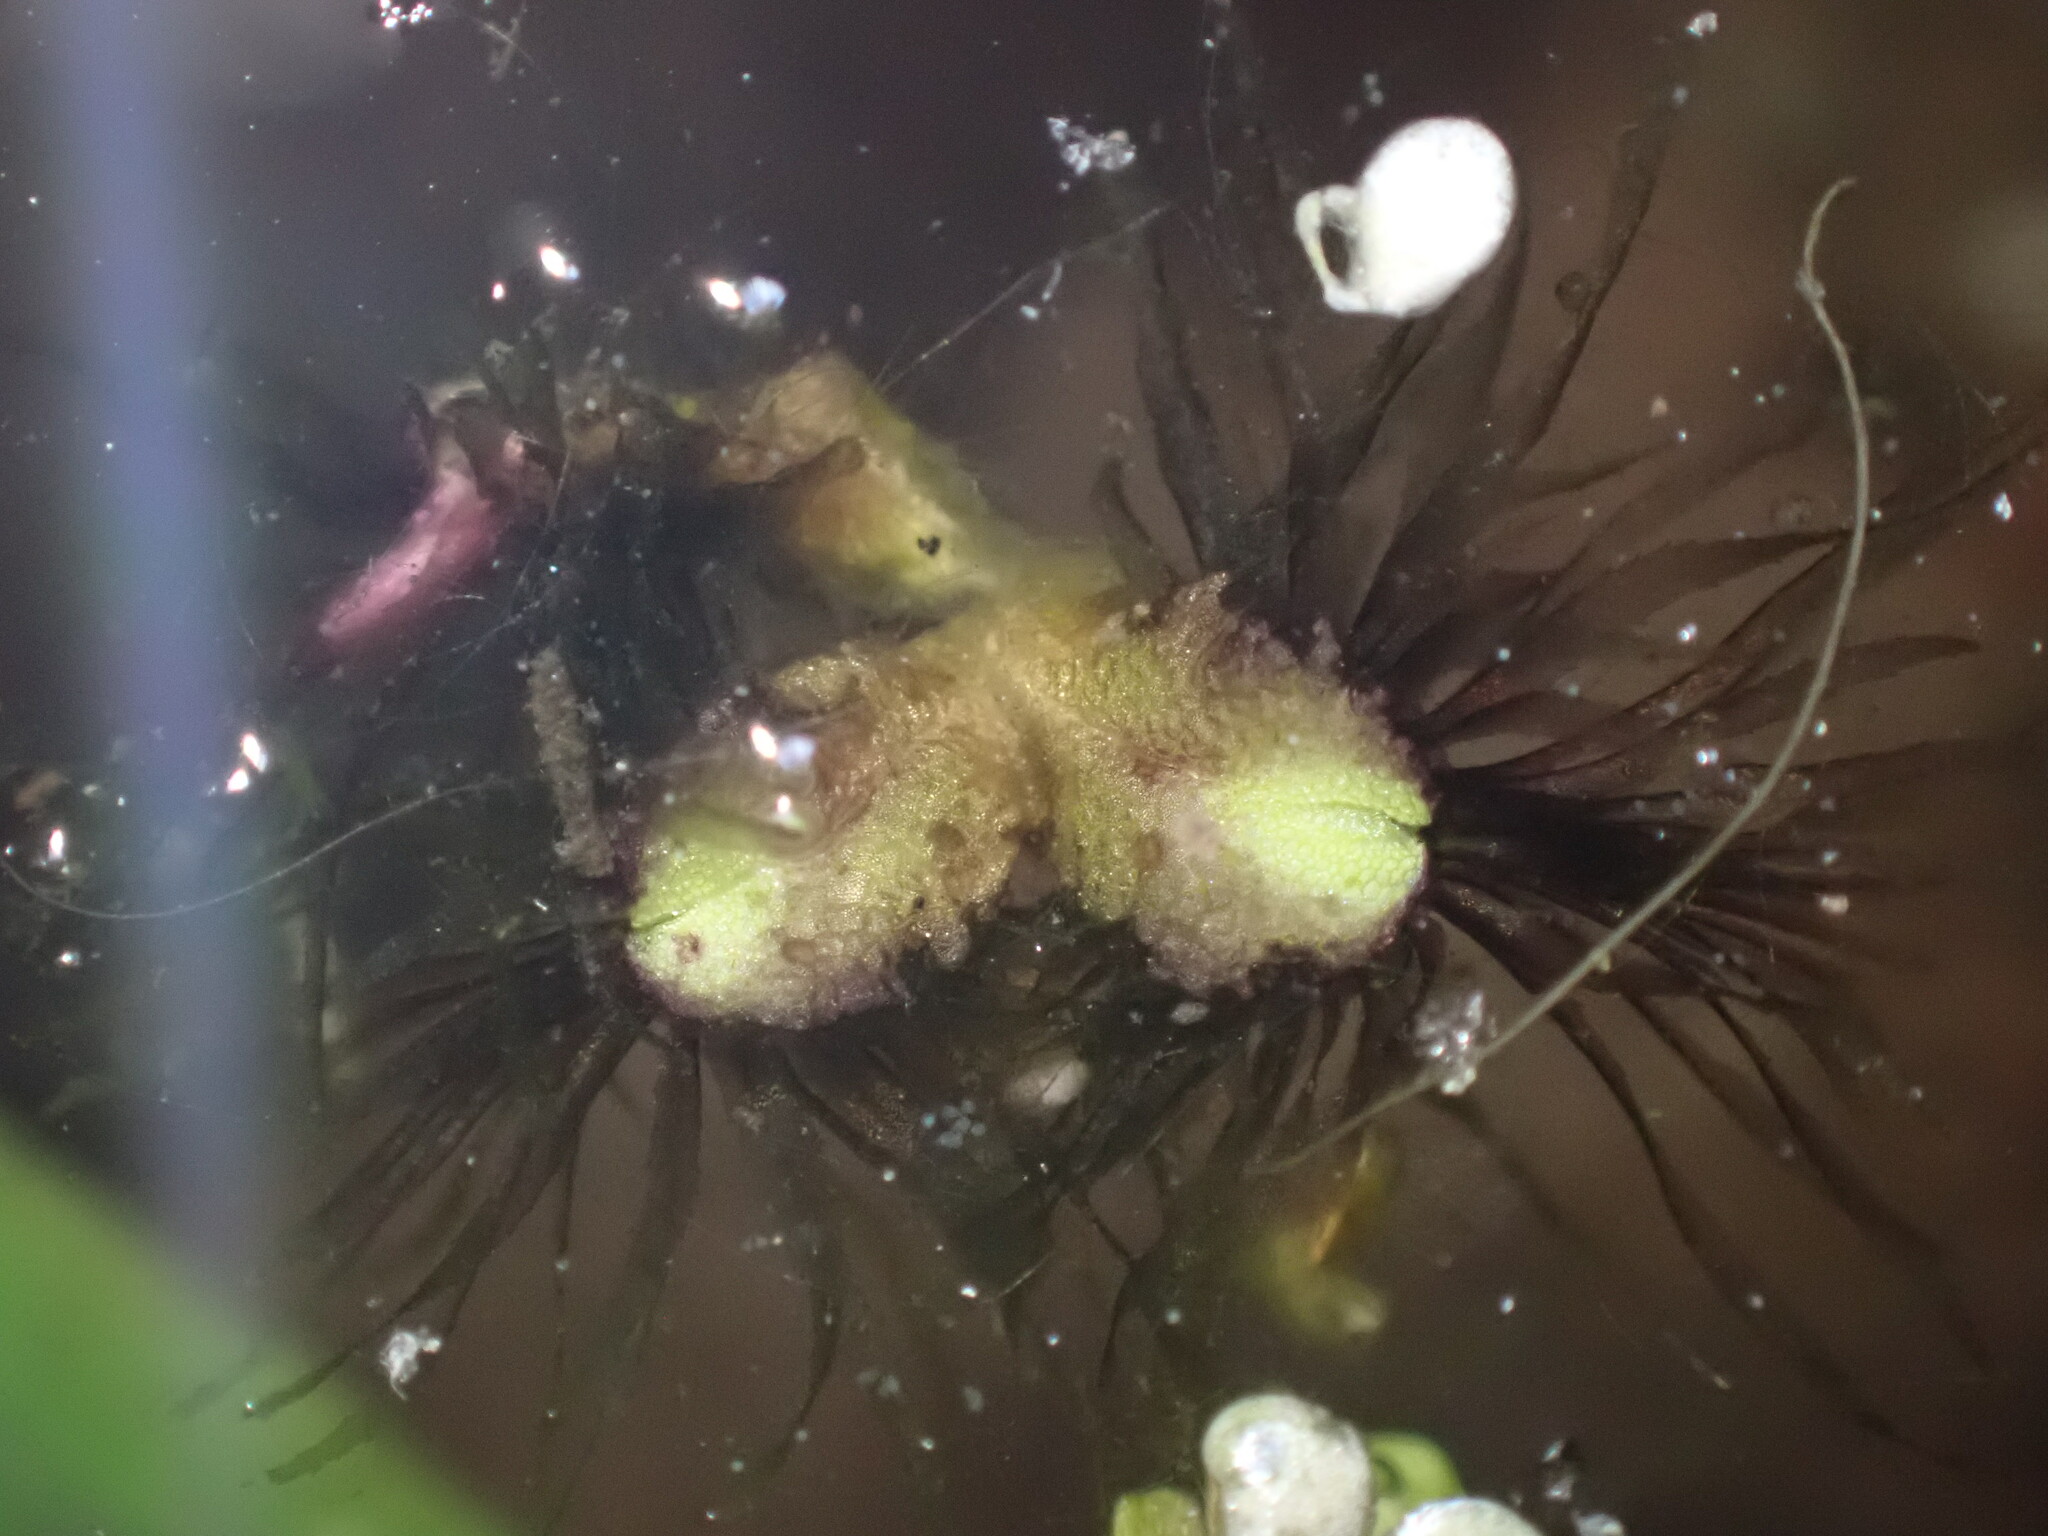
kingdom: Plantae
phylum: Marchantiophyta
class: Marchantiopsida
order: Marchantiales
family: Ricciaceae
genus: Ricciocarpos
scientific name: Ricciocarpos natans
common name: Purple-fringed liverwort
